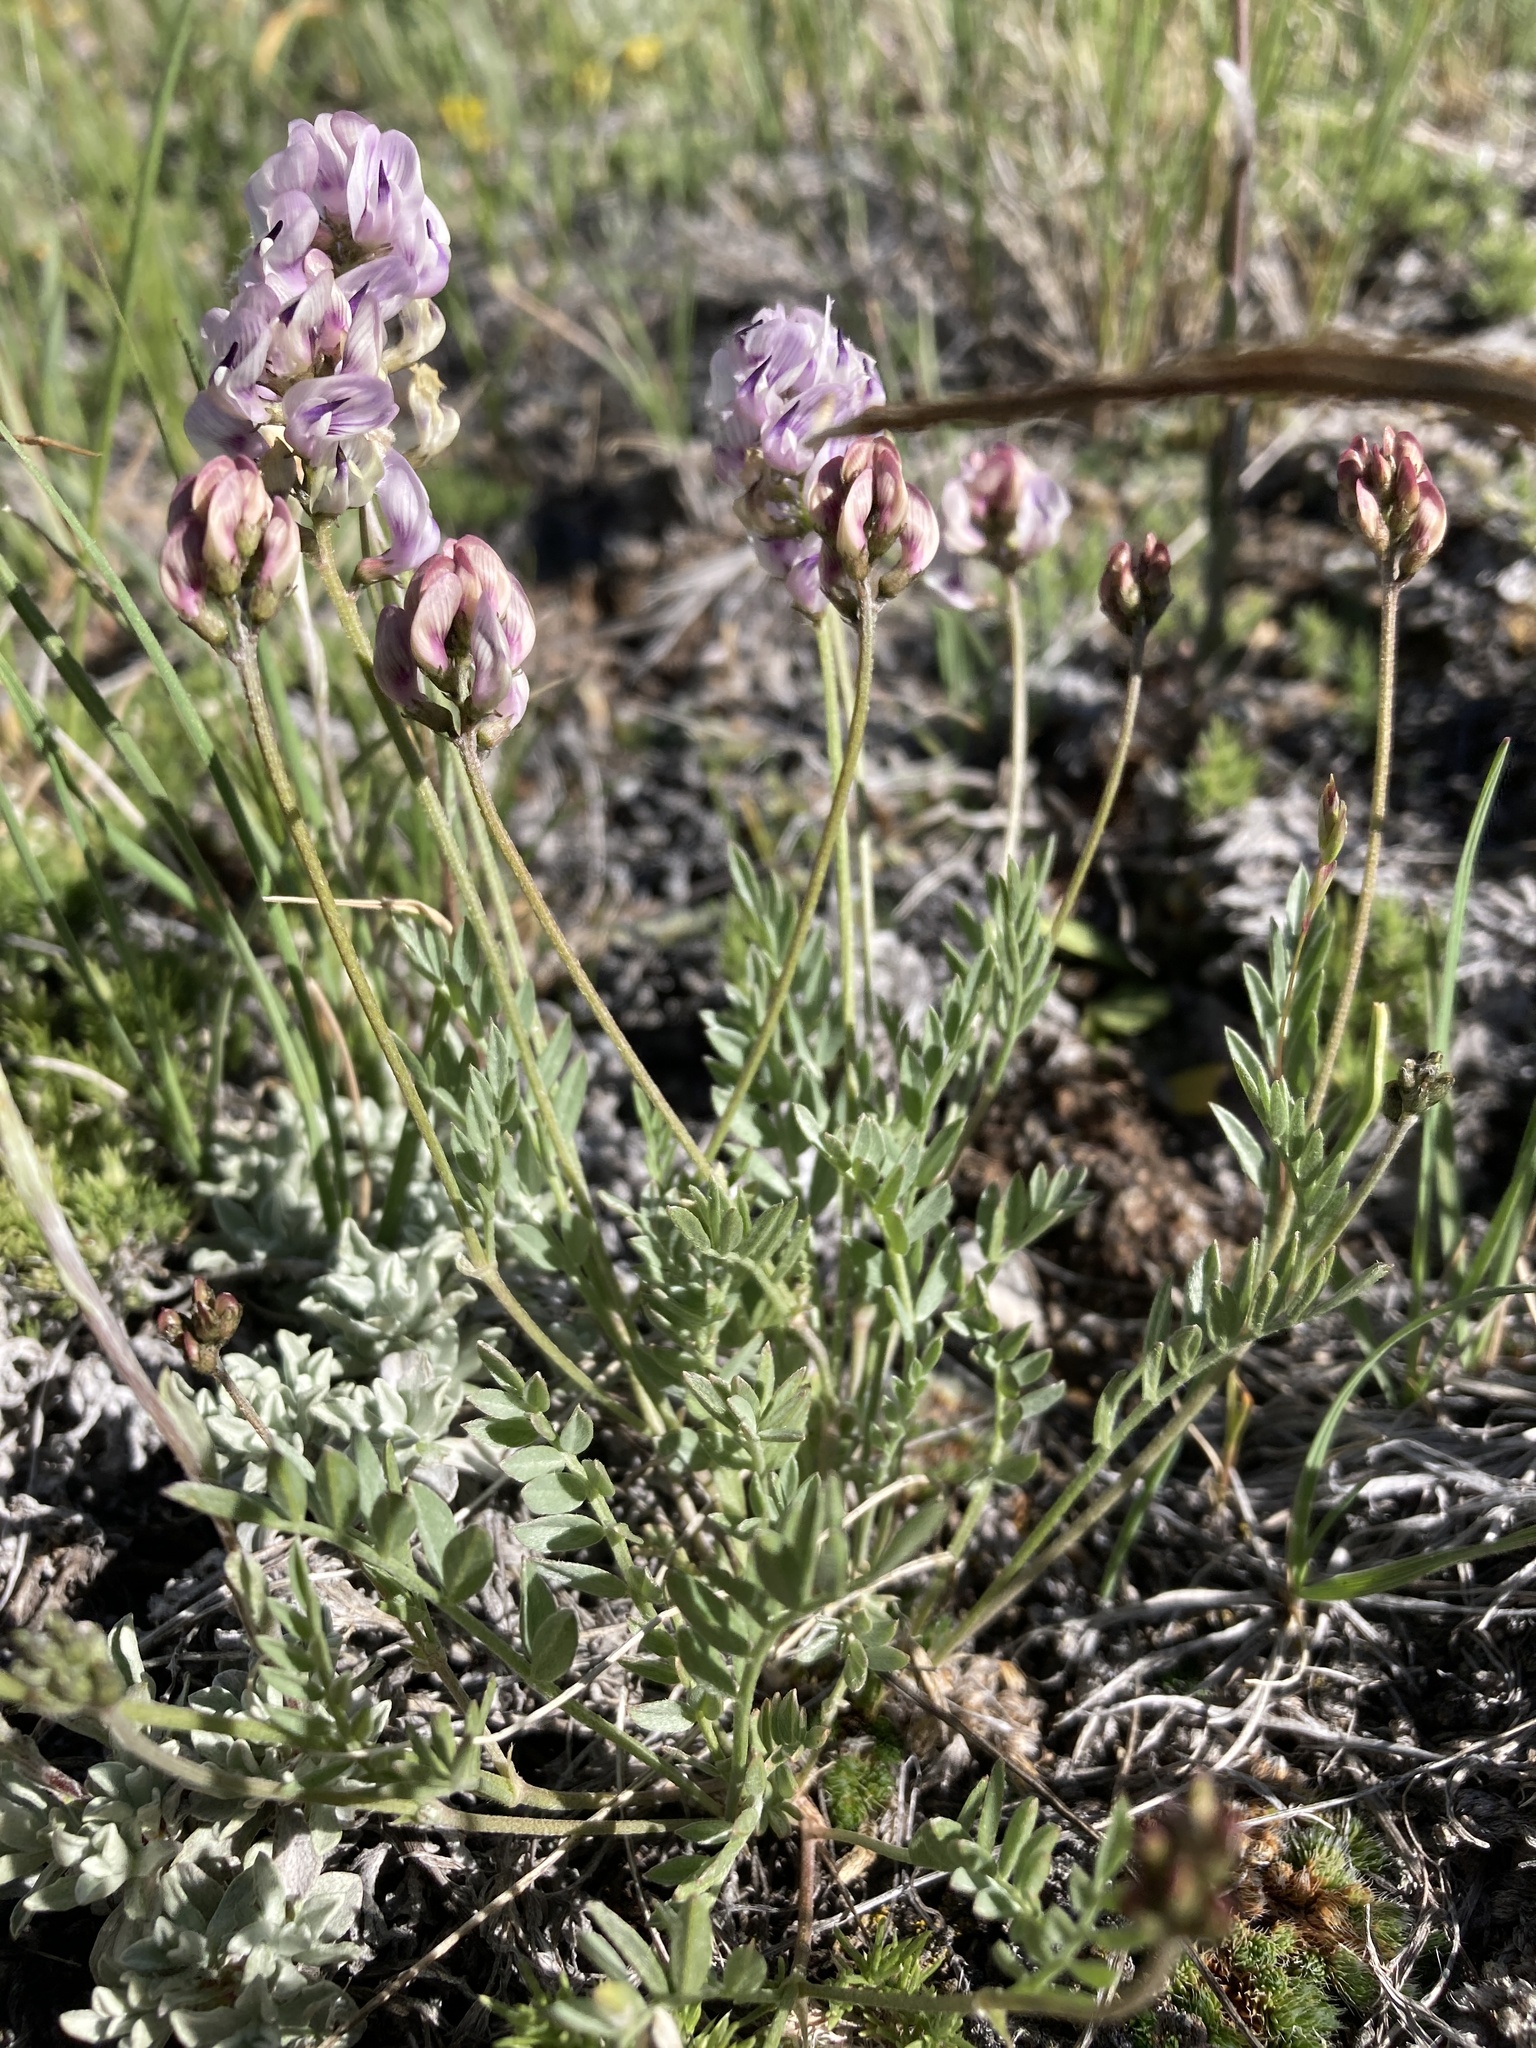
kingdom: Plantae
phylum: Tracheophyta
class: Magnoliopsida
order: Fabales
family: Fabaceae
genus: Astragalus
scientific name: Astragalus miser
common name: Timber milkvetch
